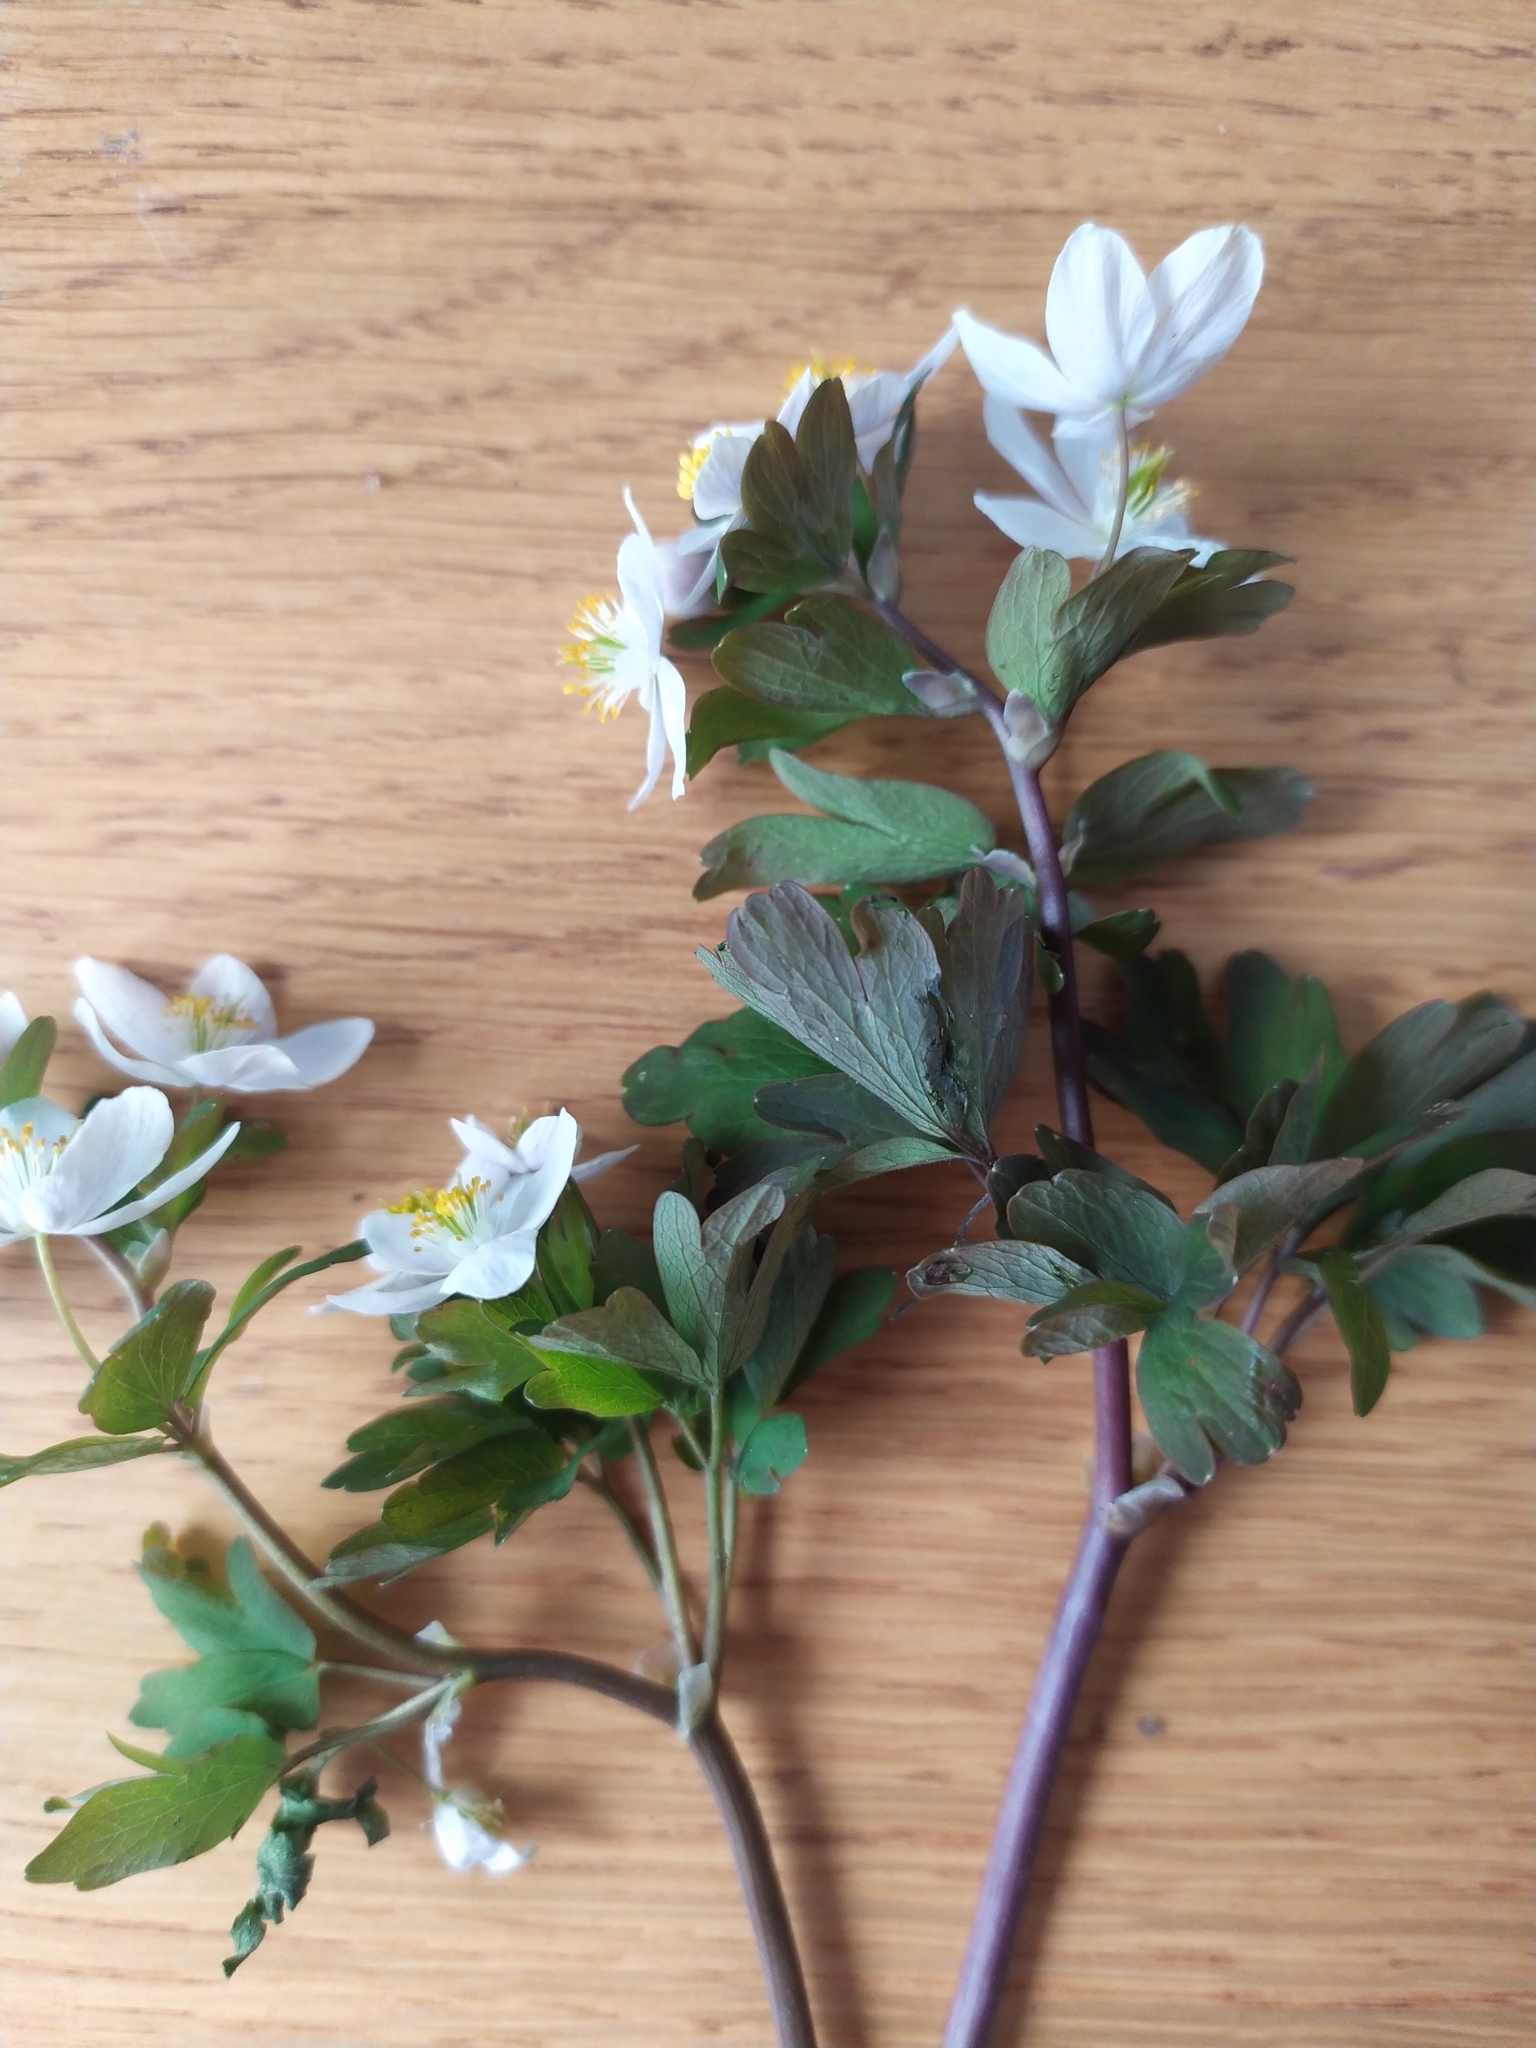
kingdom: Plantae
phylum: Tracheophyta
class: Magnoliopsida
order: Ranunculales
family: Ranunculaceae
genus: Isopyrum
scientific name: Isopyrum thalictroides
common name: Isopyrum
